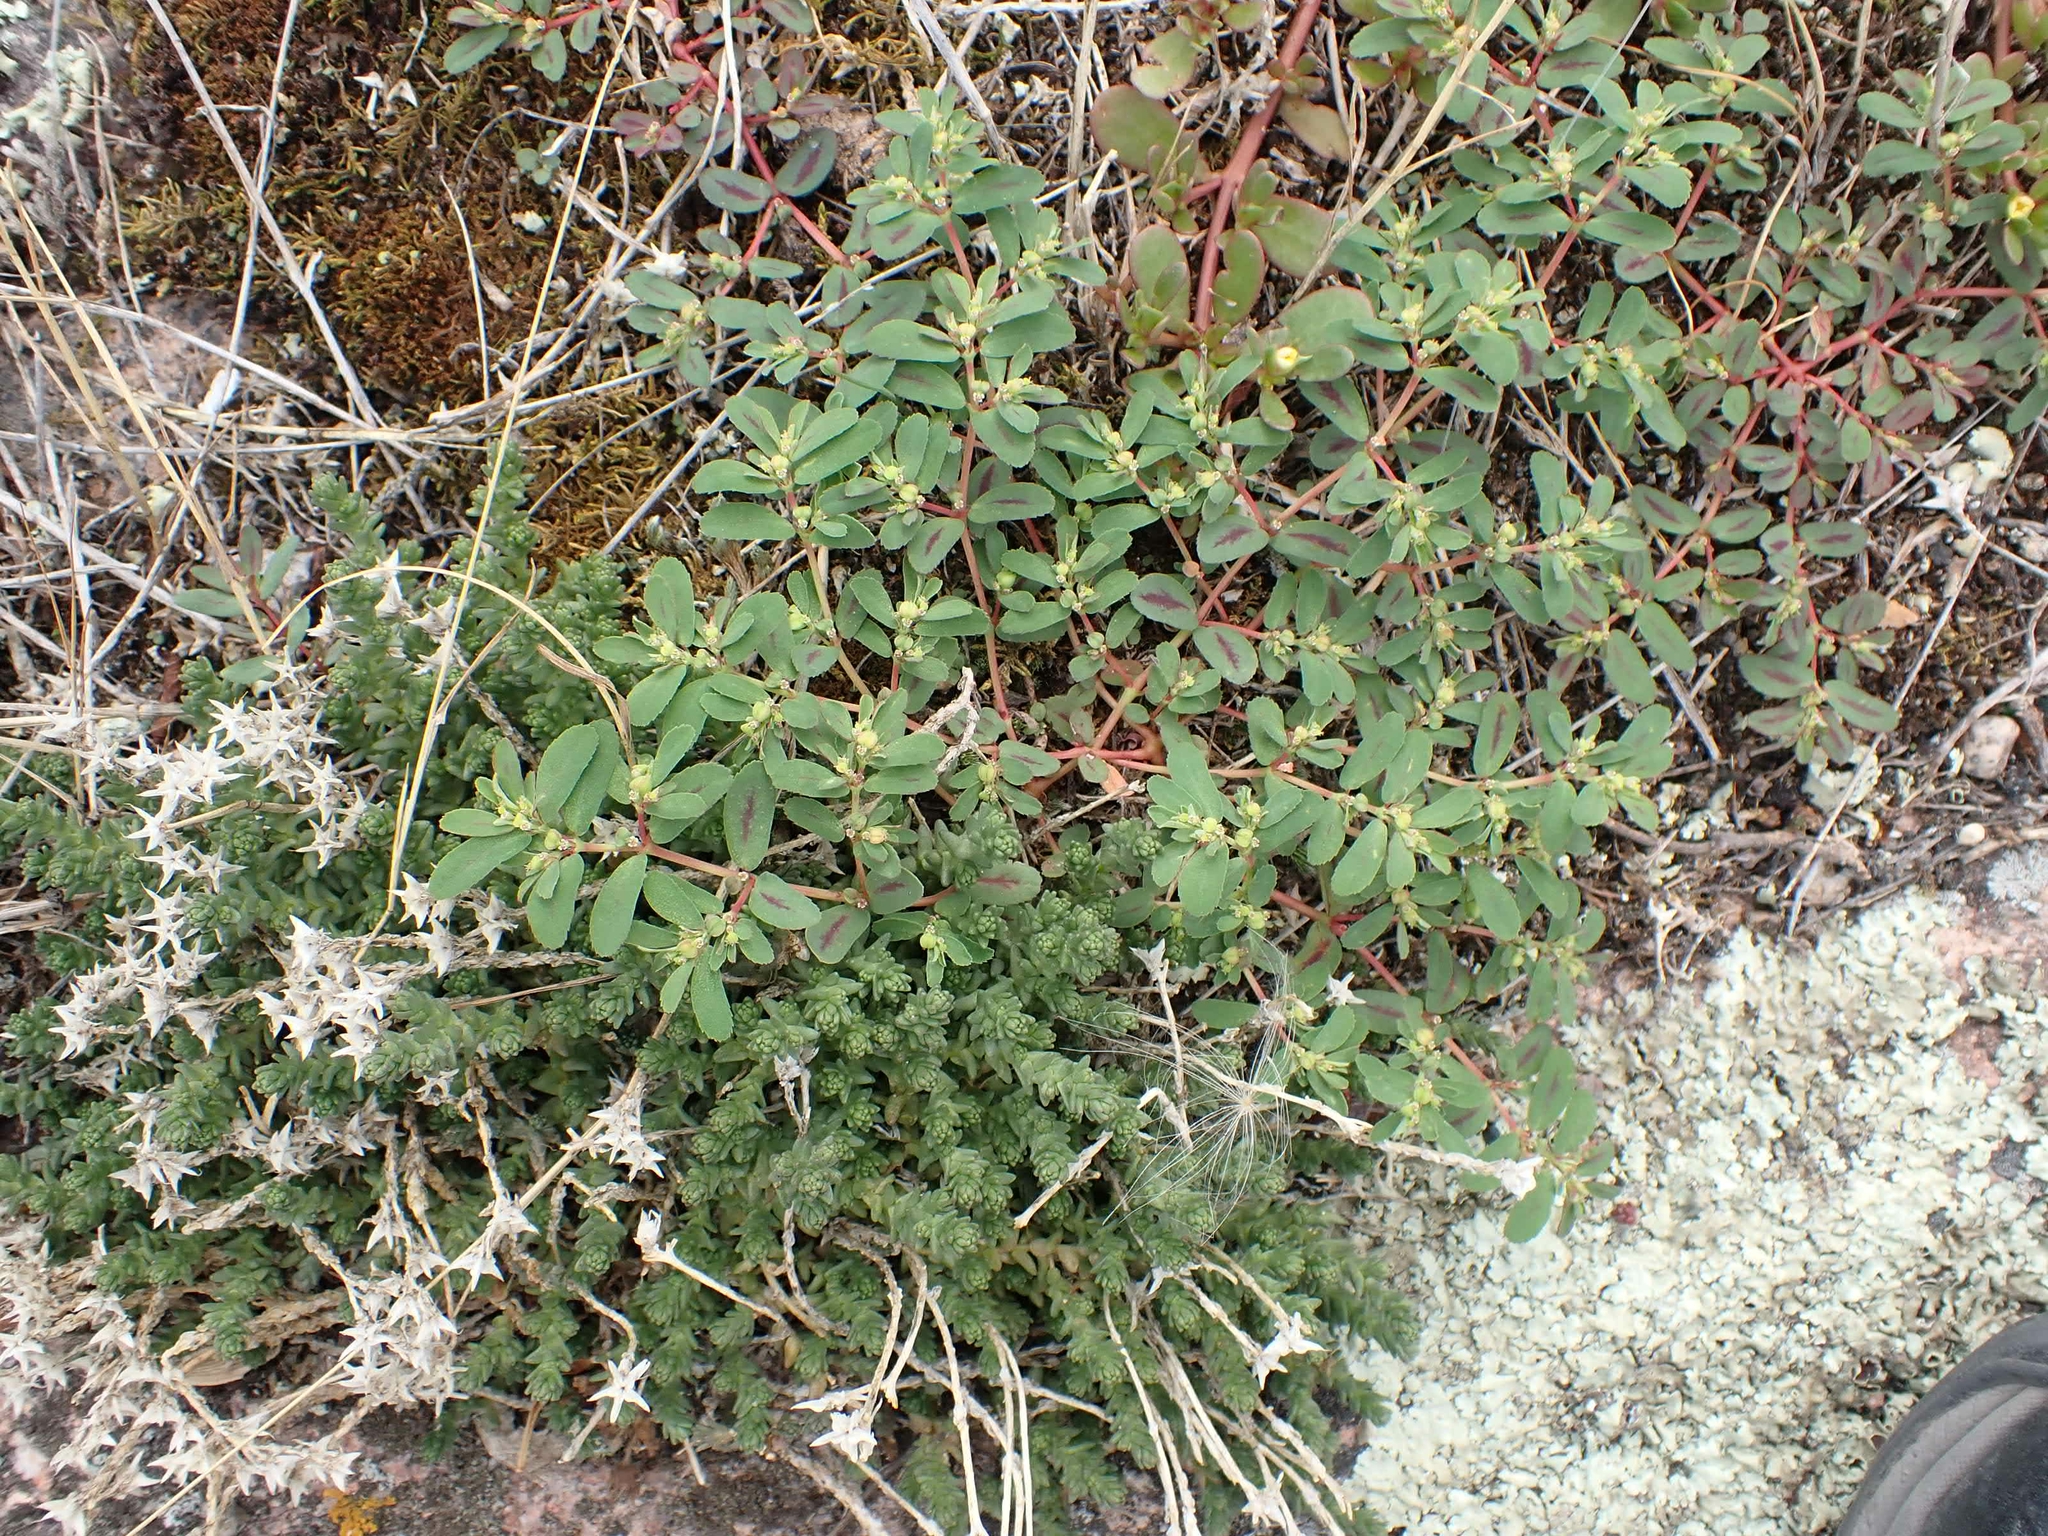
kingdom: Plantae
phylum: Tracheophyta
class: Magnoliopsida
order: Malpighiales
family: Euphorbiaceae
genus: Euphorbia
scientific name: Euphorbia serpillifolia
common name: Thyme-leaf spurge
